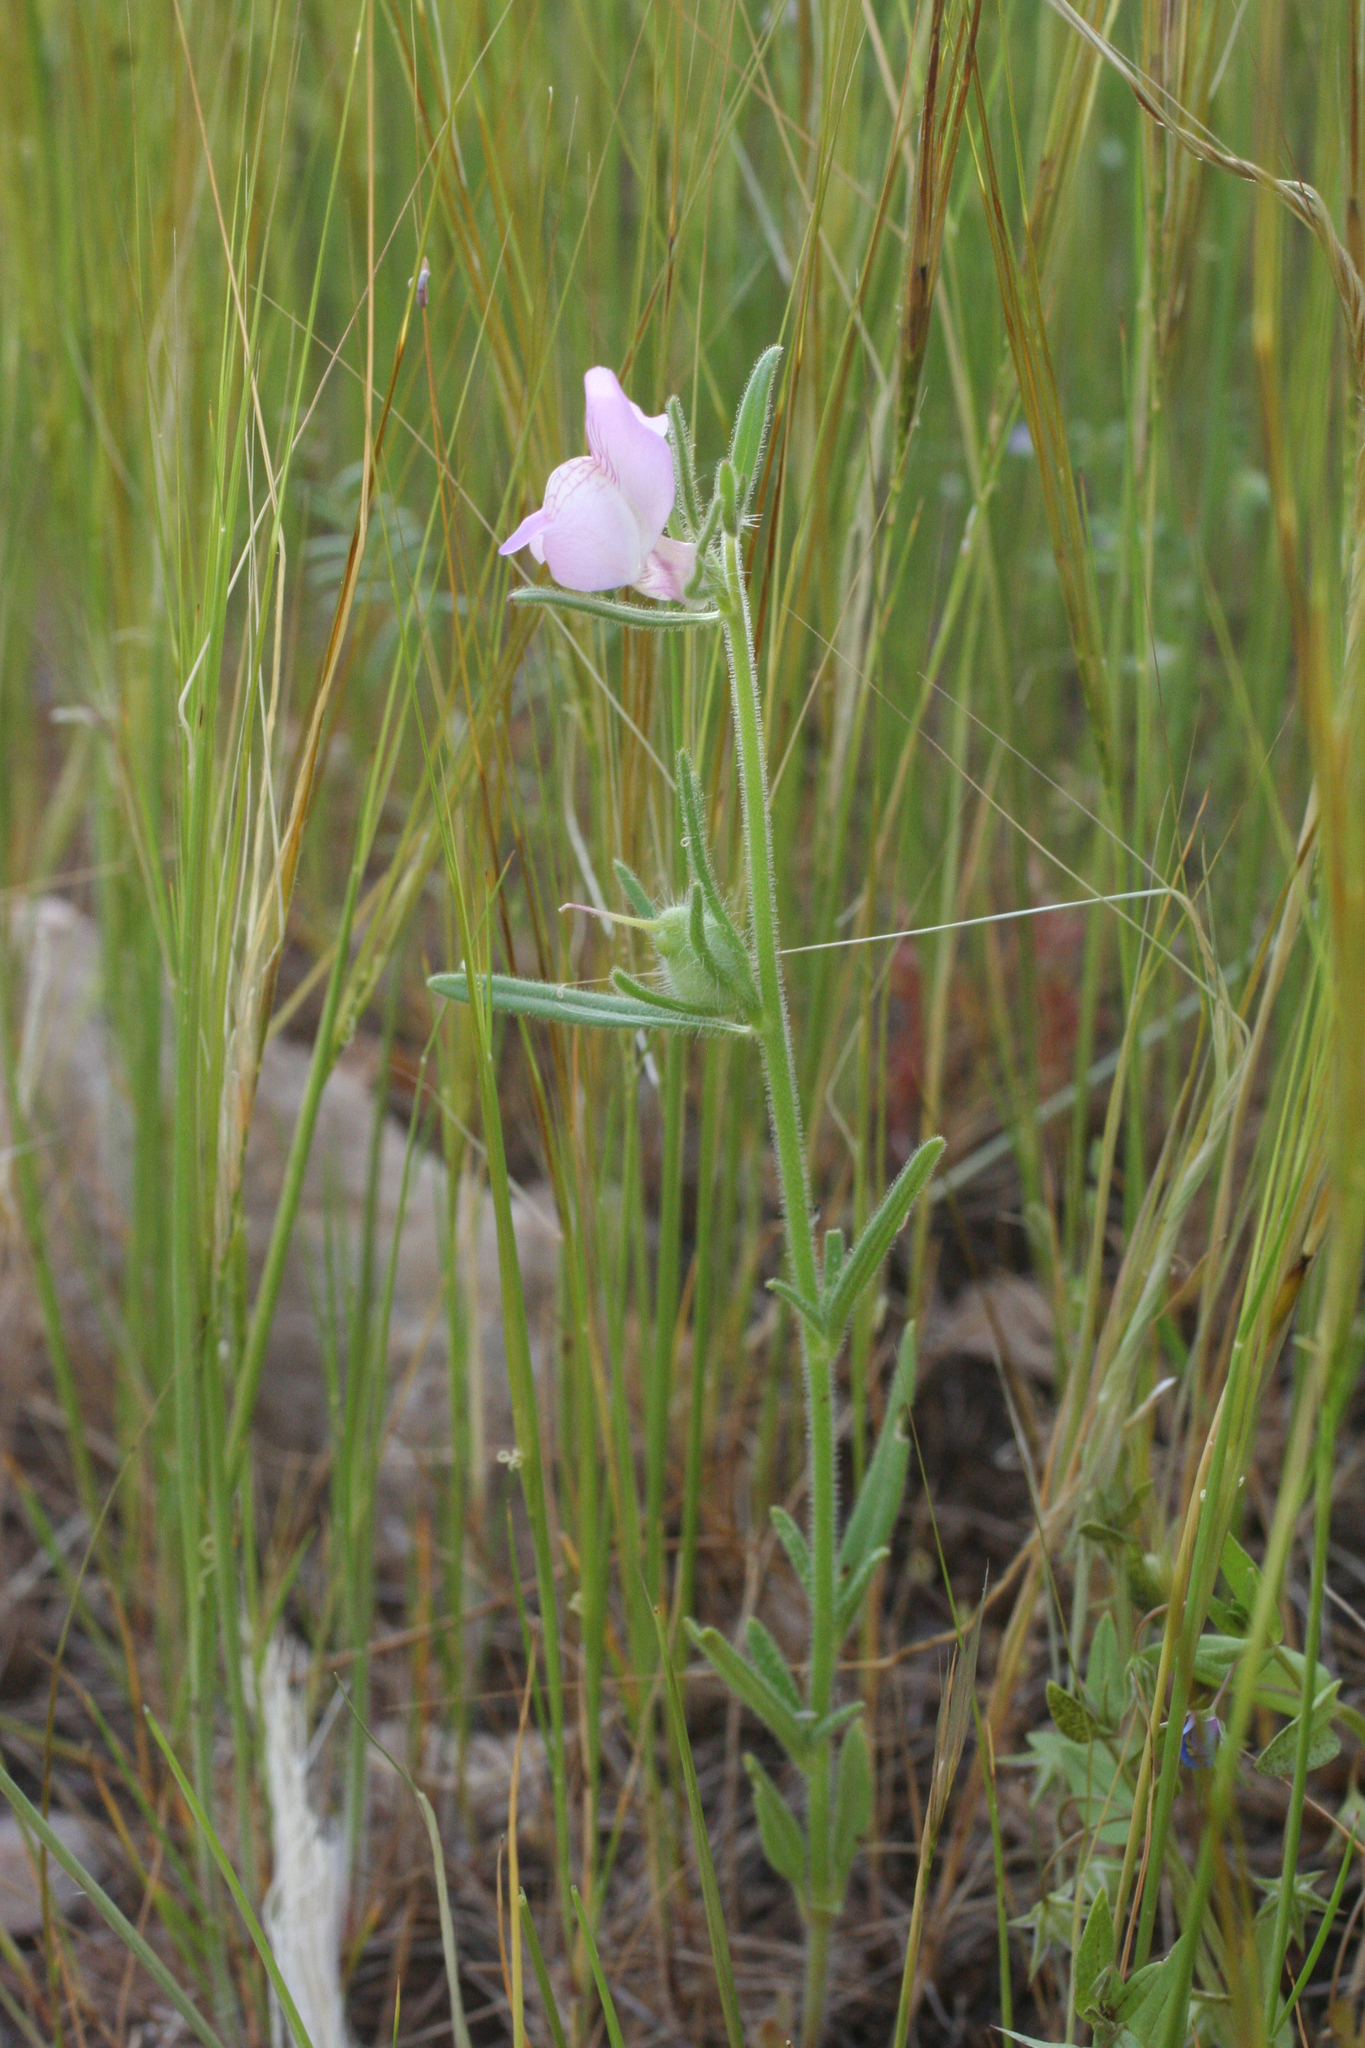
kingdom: Plantae
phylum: Tracheophyta
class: Magnoliopsida
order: Lamiales
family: Plantaginaceae
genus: Misopates
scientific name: Misopates orontium
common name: Weasel's-snout
